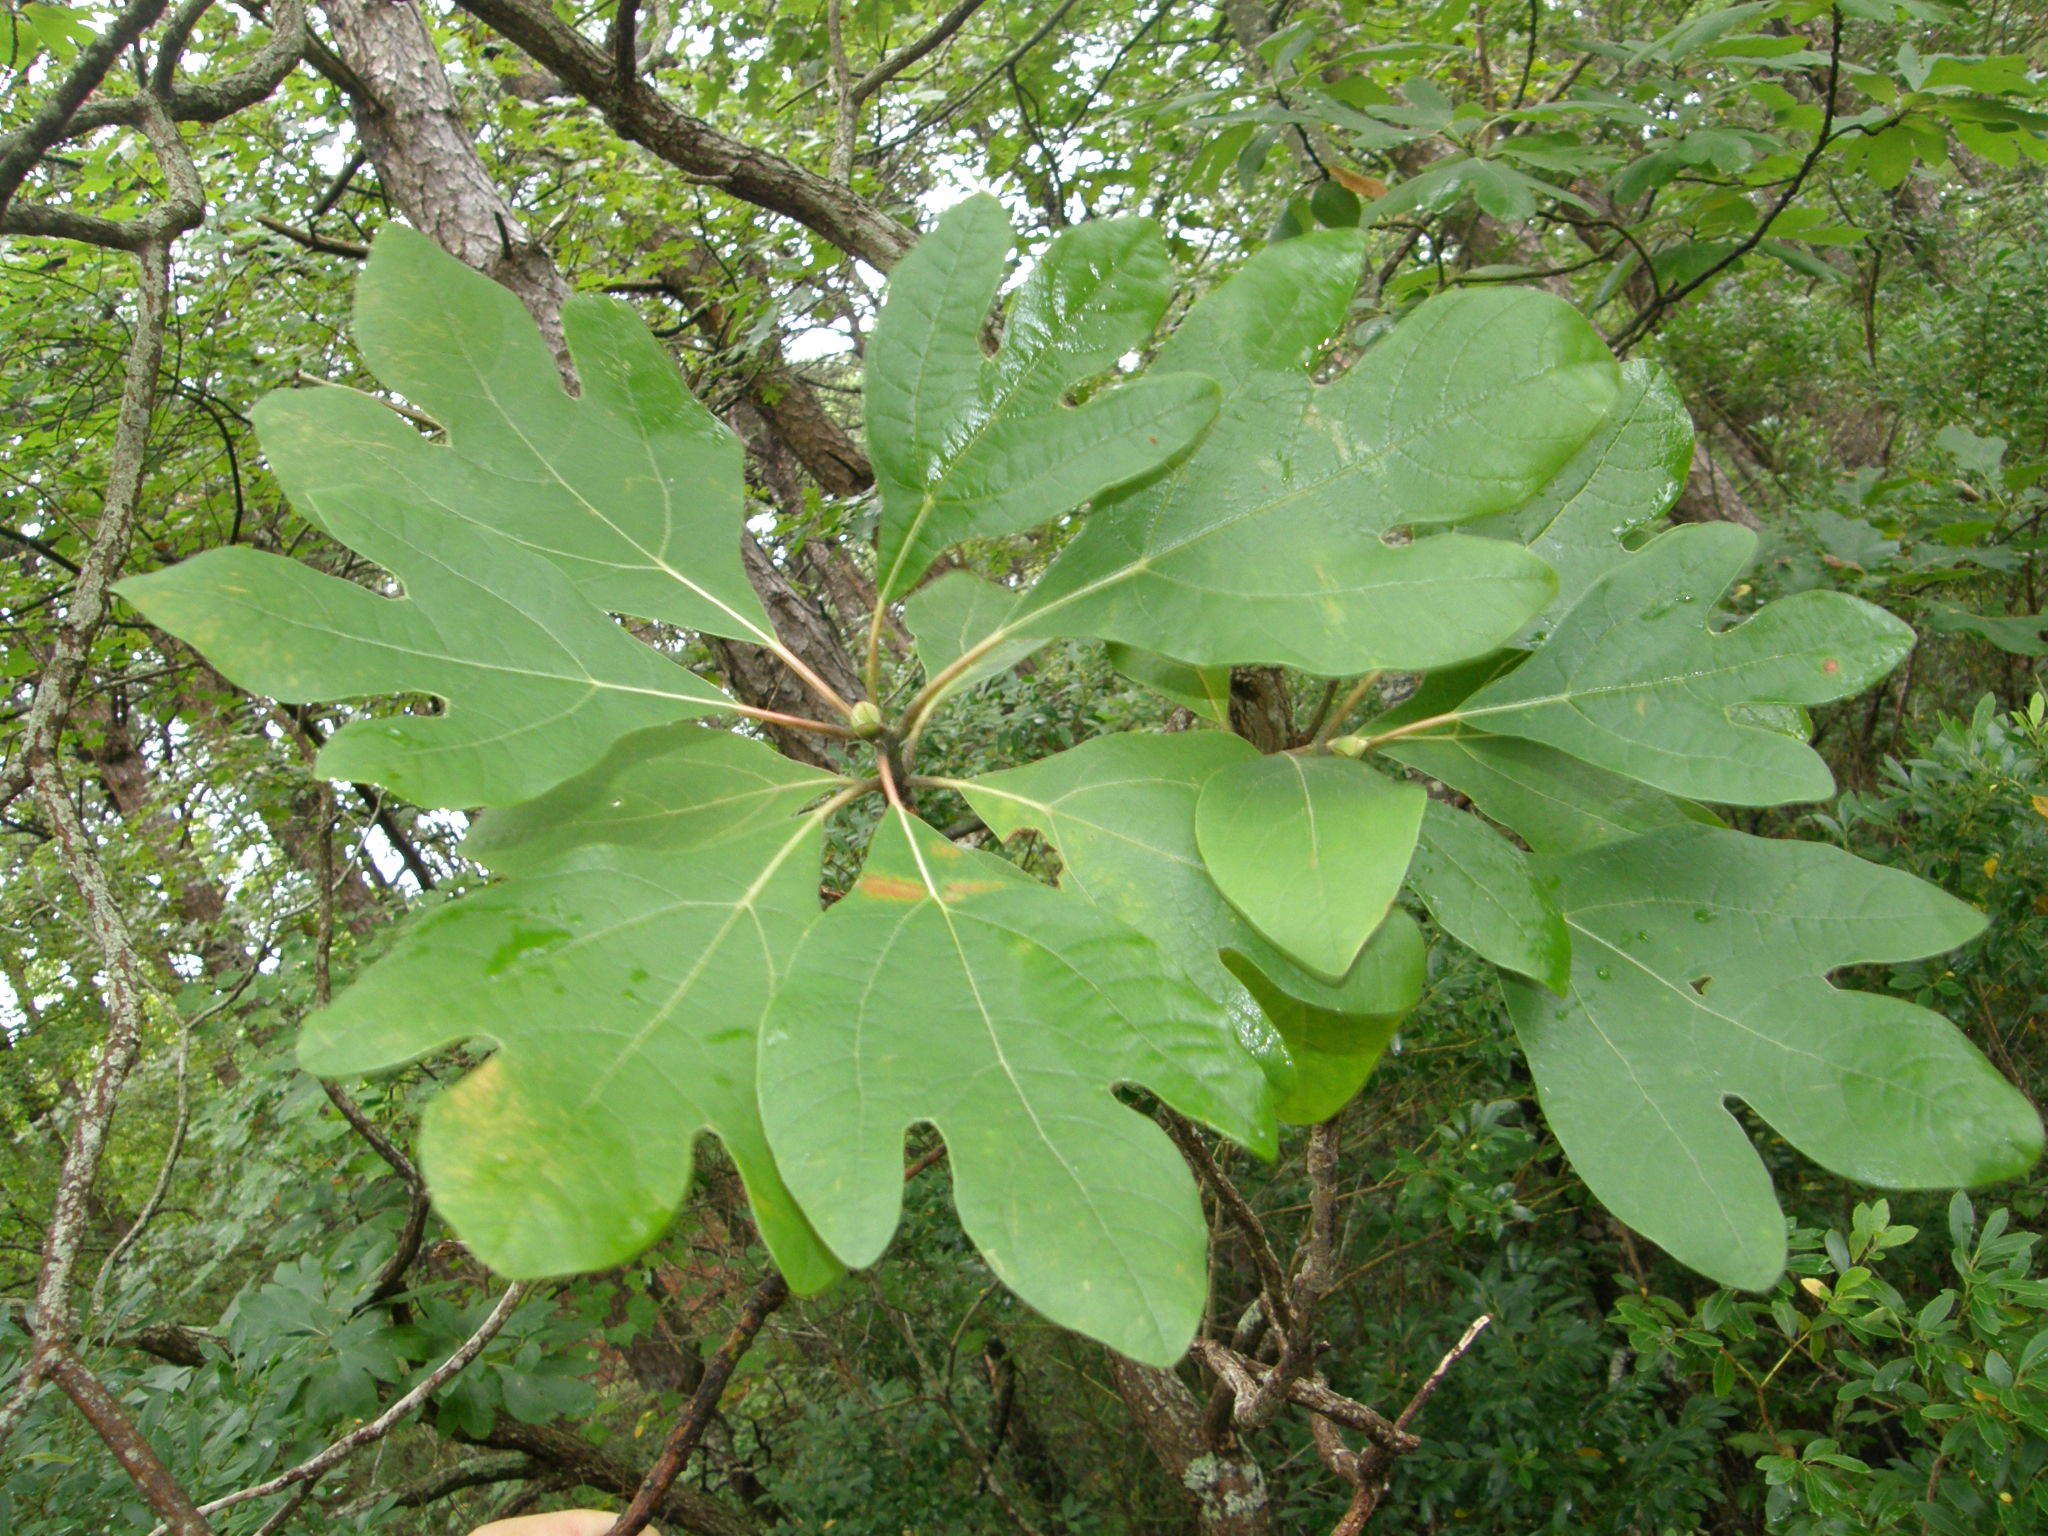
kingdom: Plantae
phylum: Tracheophyta
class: Magnoliopsida
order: Laurales
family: Lauraceae
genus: Sassafras
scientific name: Sassafras albidum
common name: Sassafras
